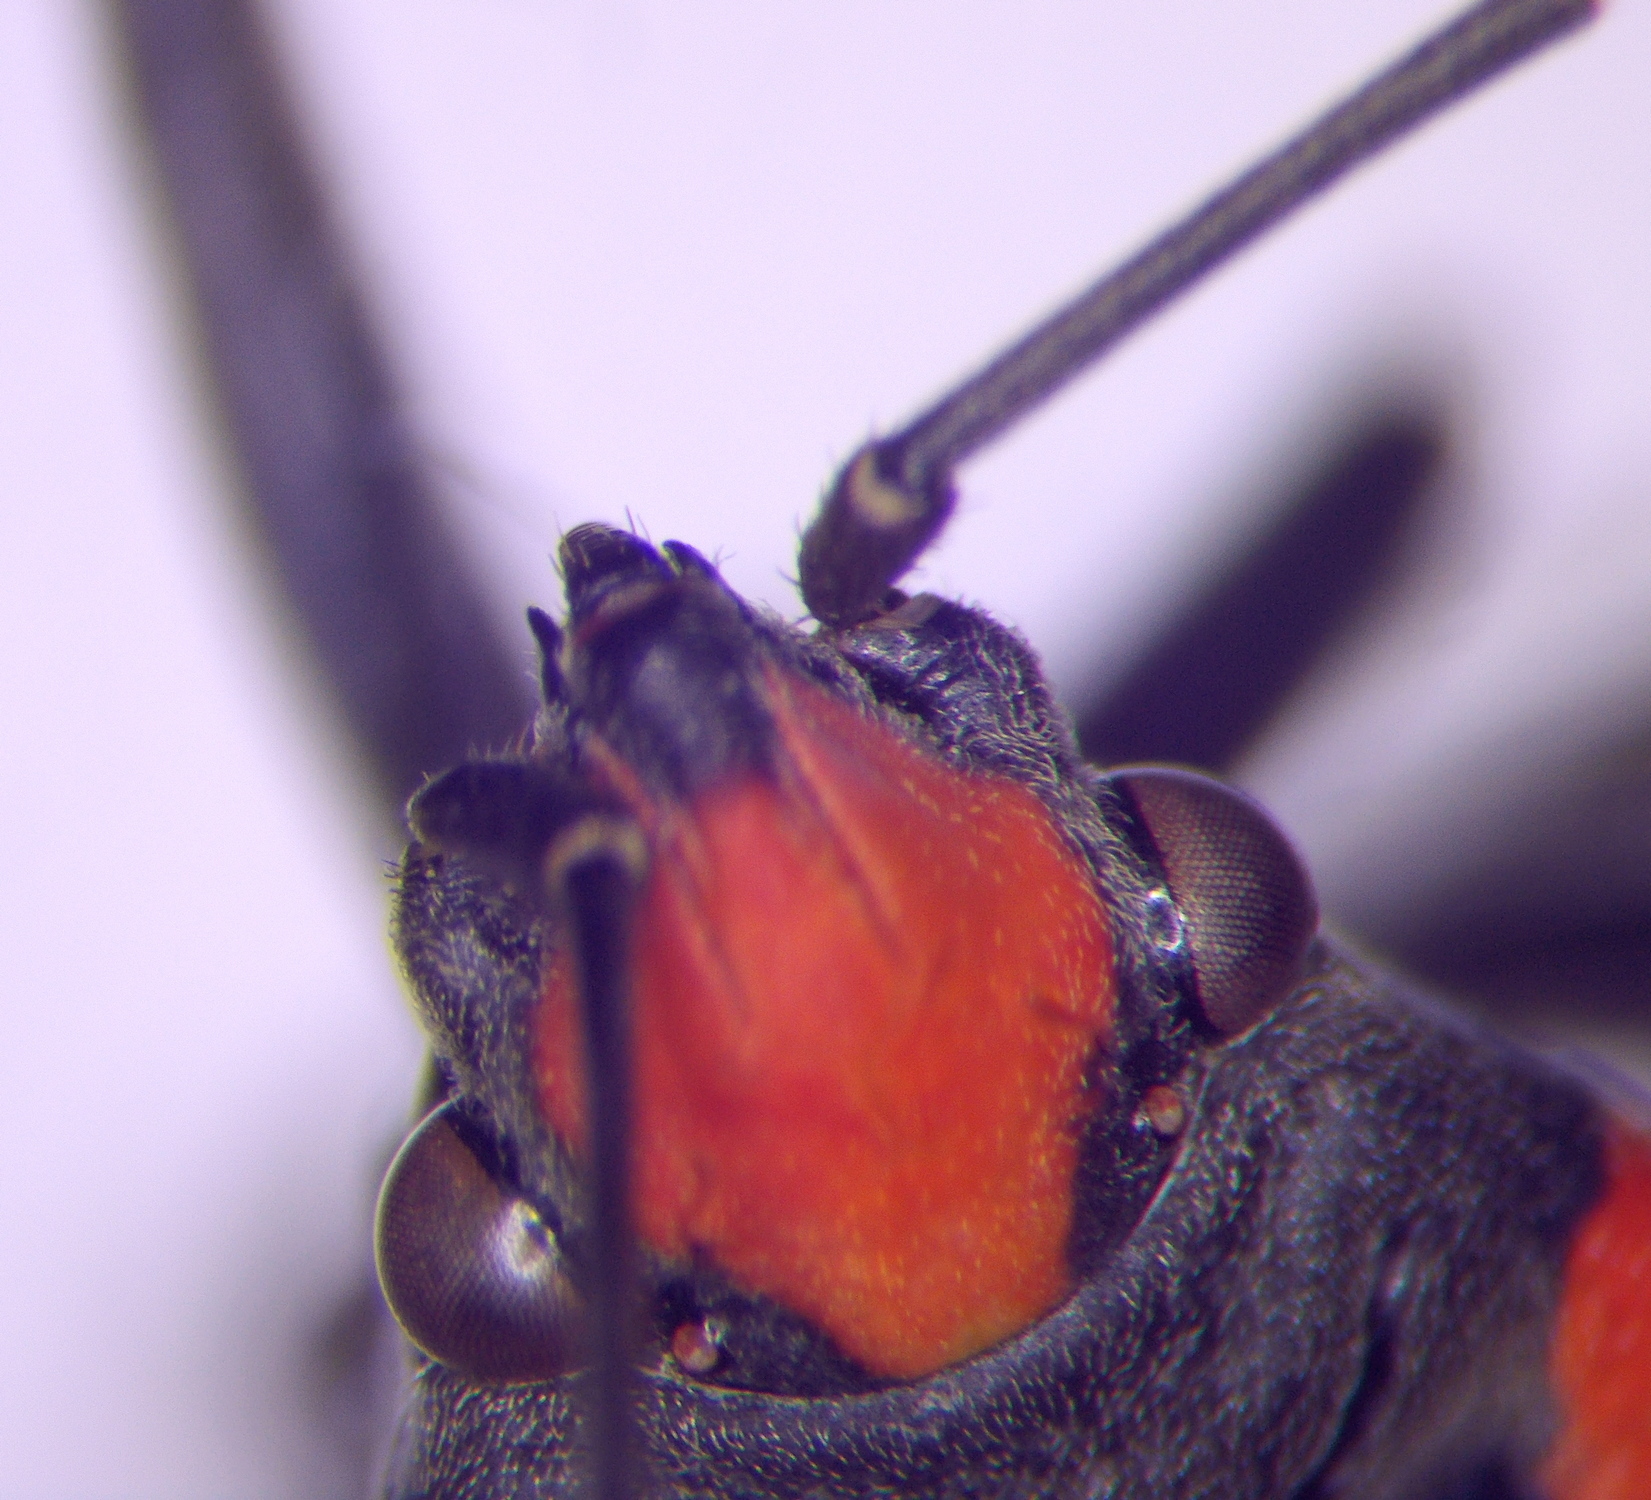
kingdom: Animalia
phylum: Arthropoda
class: Insecta
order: Hemiptera
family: Lygaeidae
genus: Lygaeus
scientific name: Lygaeus simulans
